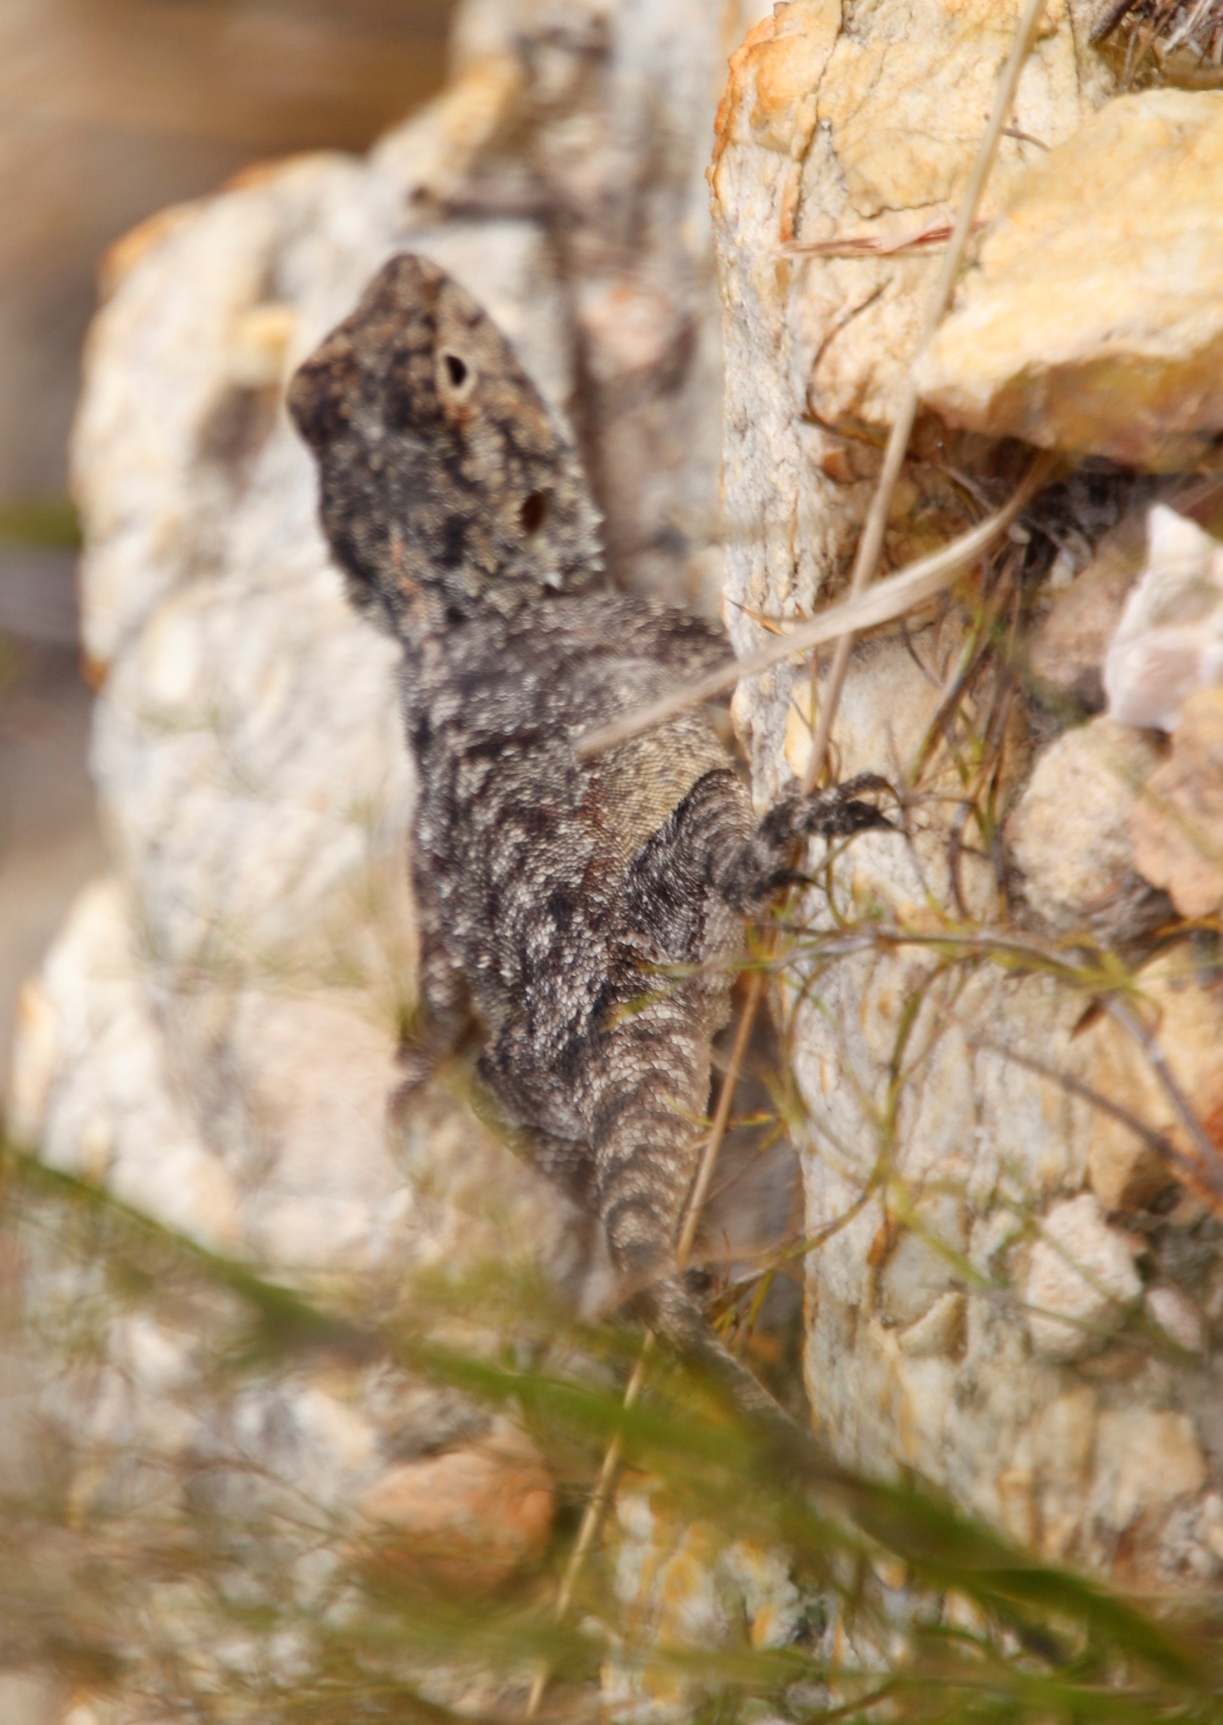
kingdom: Animalia
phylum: Chordata
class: Squamata
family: Agamidae
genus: Agama
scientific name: Agama atra
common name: Southern african rock agama
